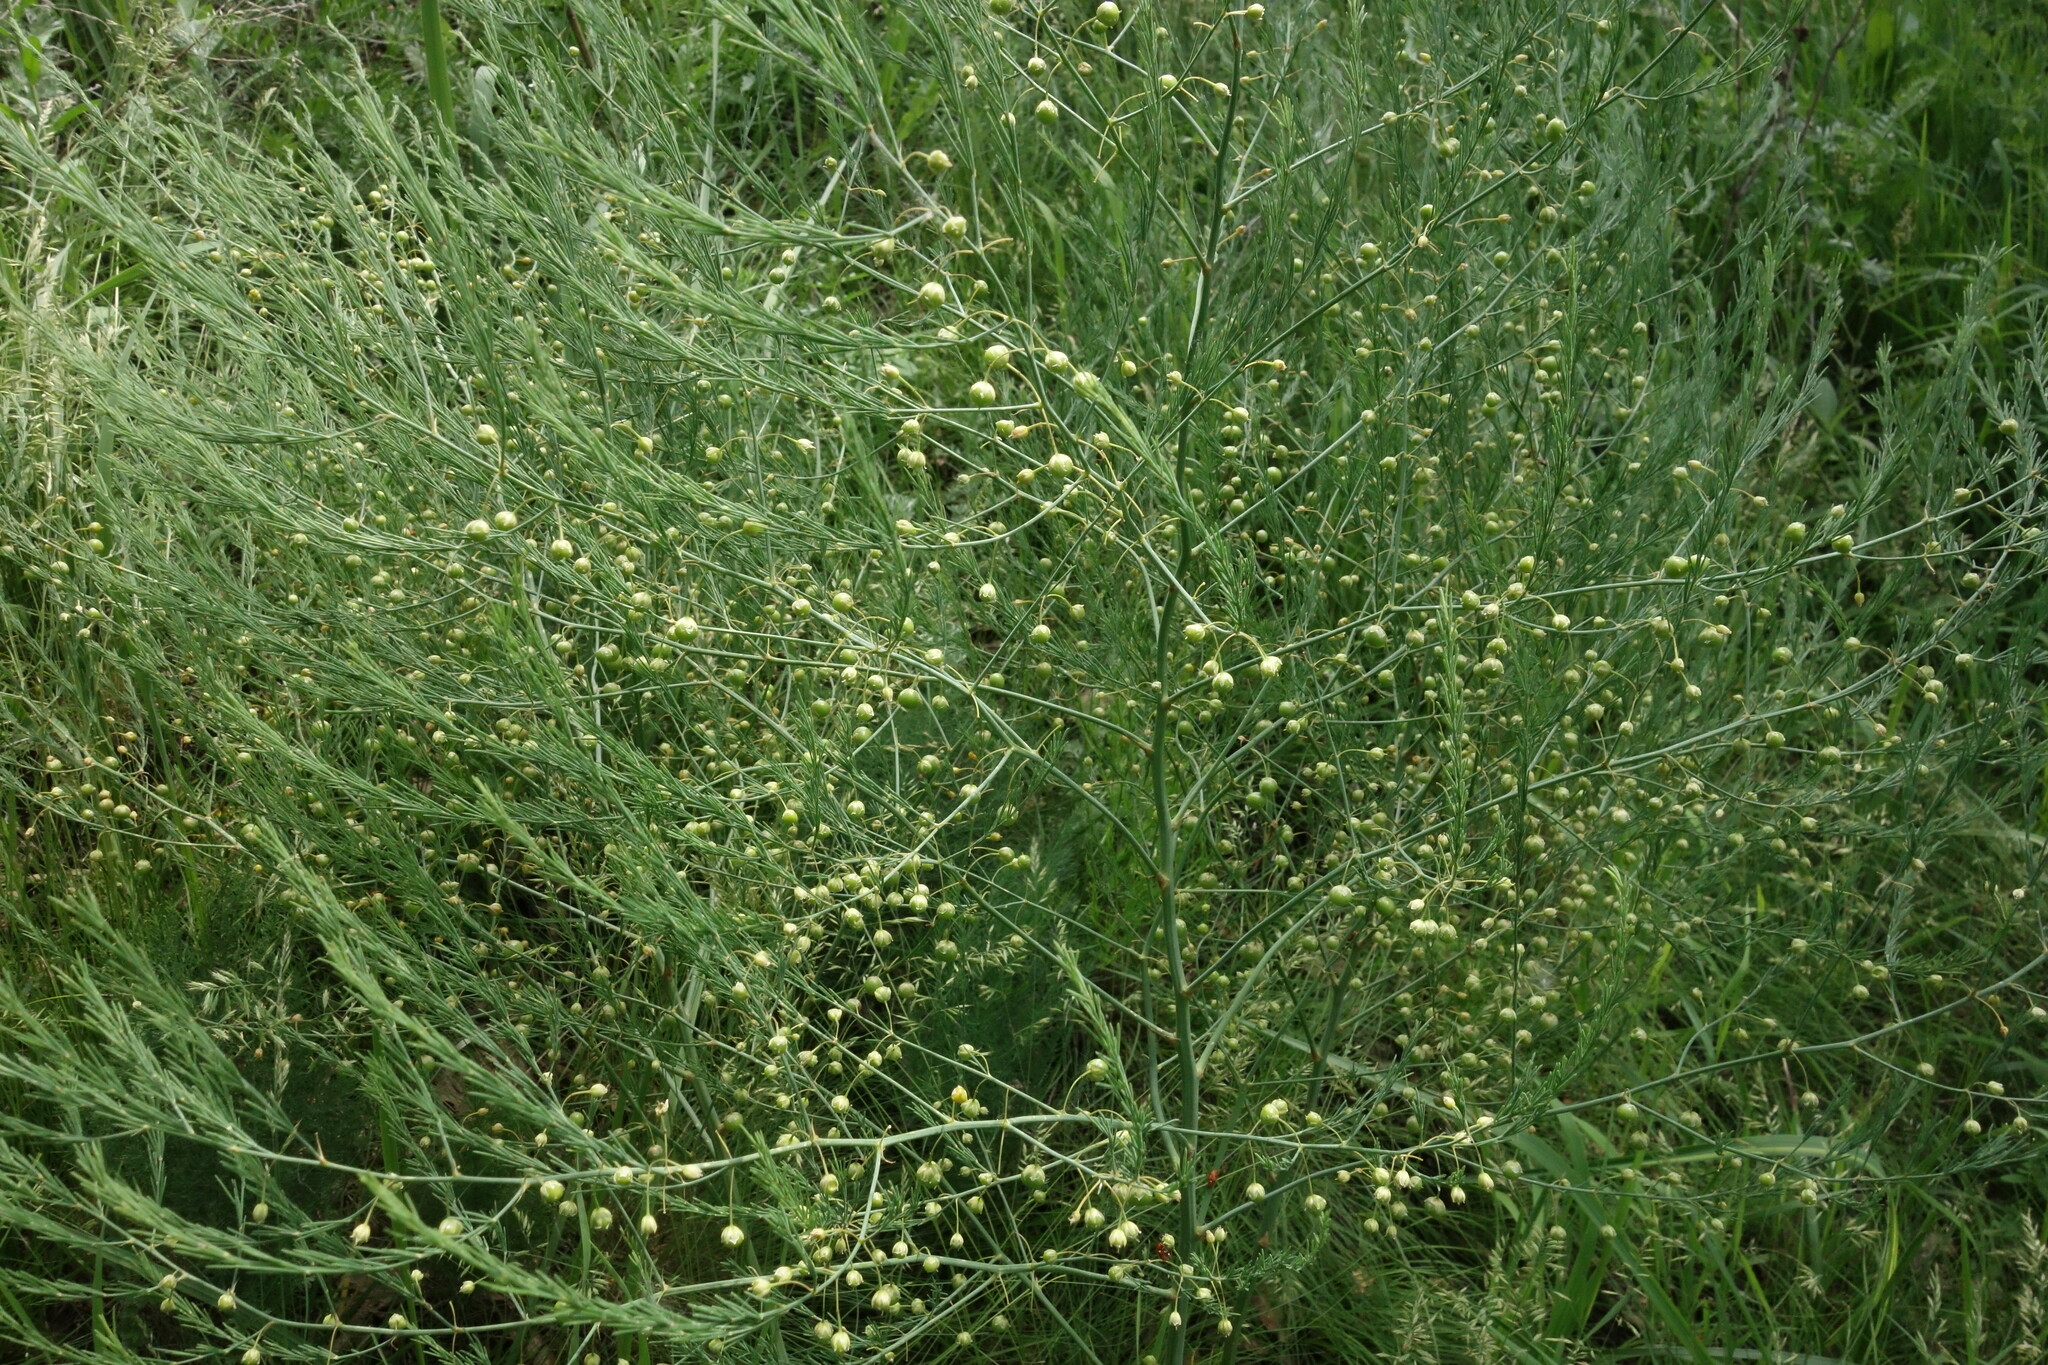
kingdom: Plantae
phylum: Tracheophyta
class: Liliopsida
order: Asparagales
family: Asparagaceae
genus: Asparagus
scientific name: Asparagus officinalis
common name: Garden asparagus
